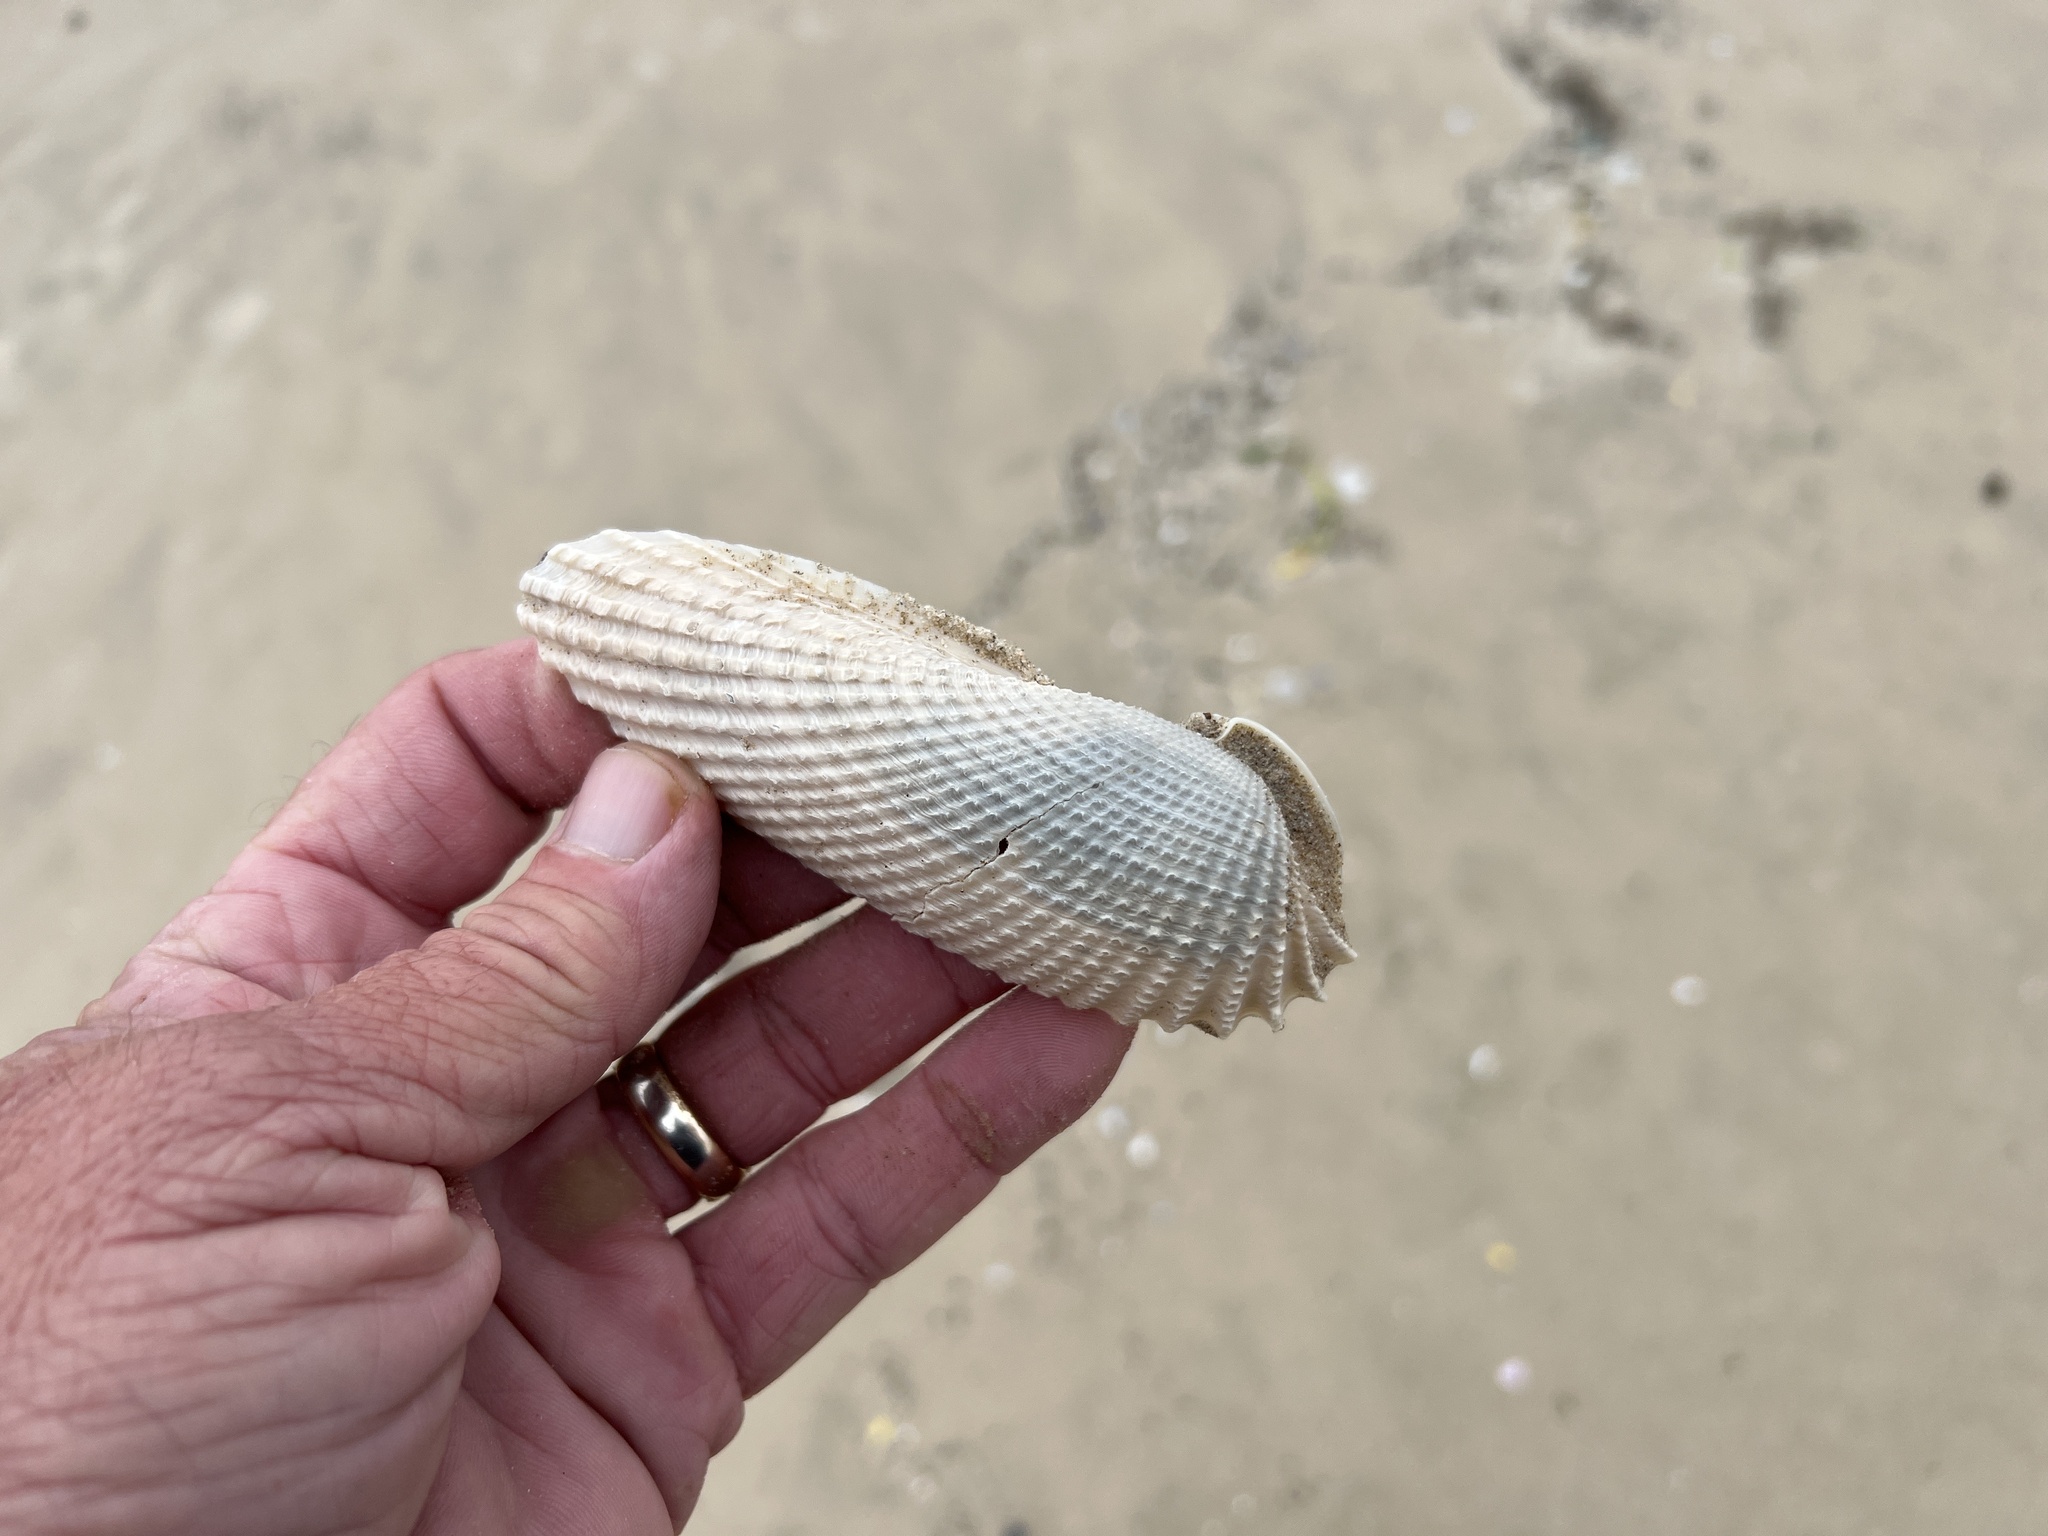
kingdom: Animalia
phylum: Mollusca
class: Bivalvia
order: Myida
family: Pholadidae
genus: Cyrtopleura
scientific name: Cyrtopleura costata
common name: Angel wing
